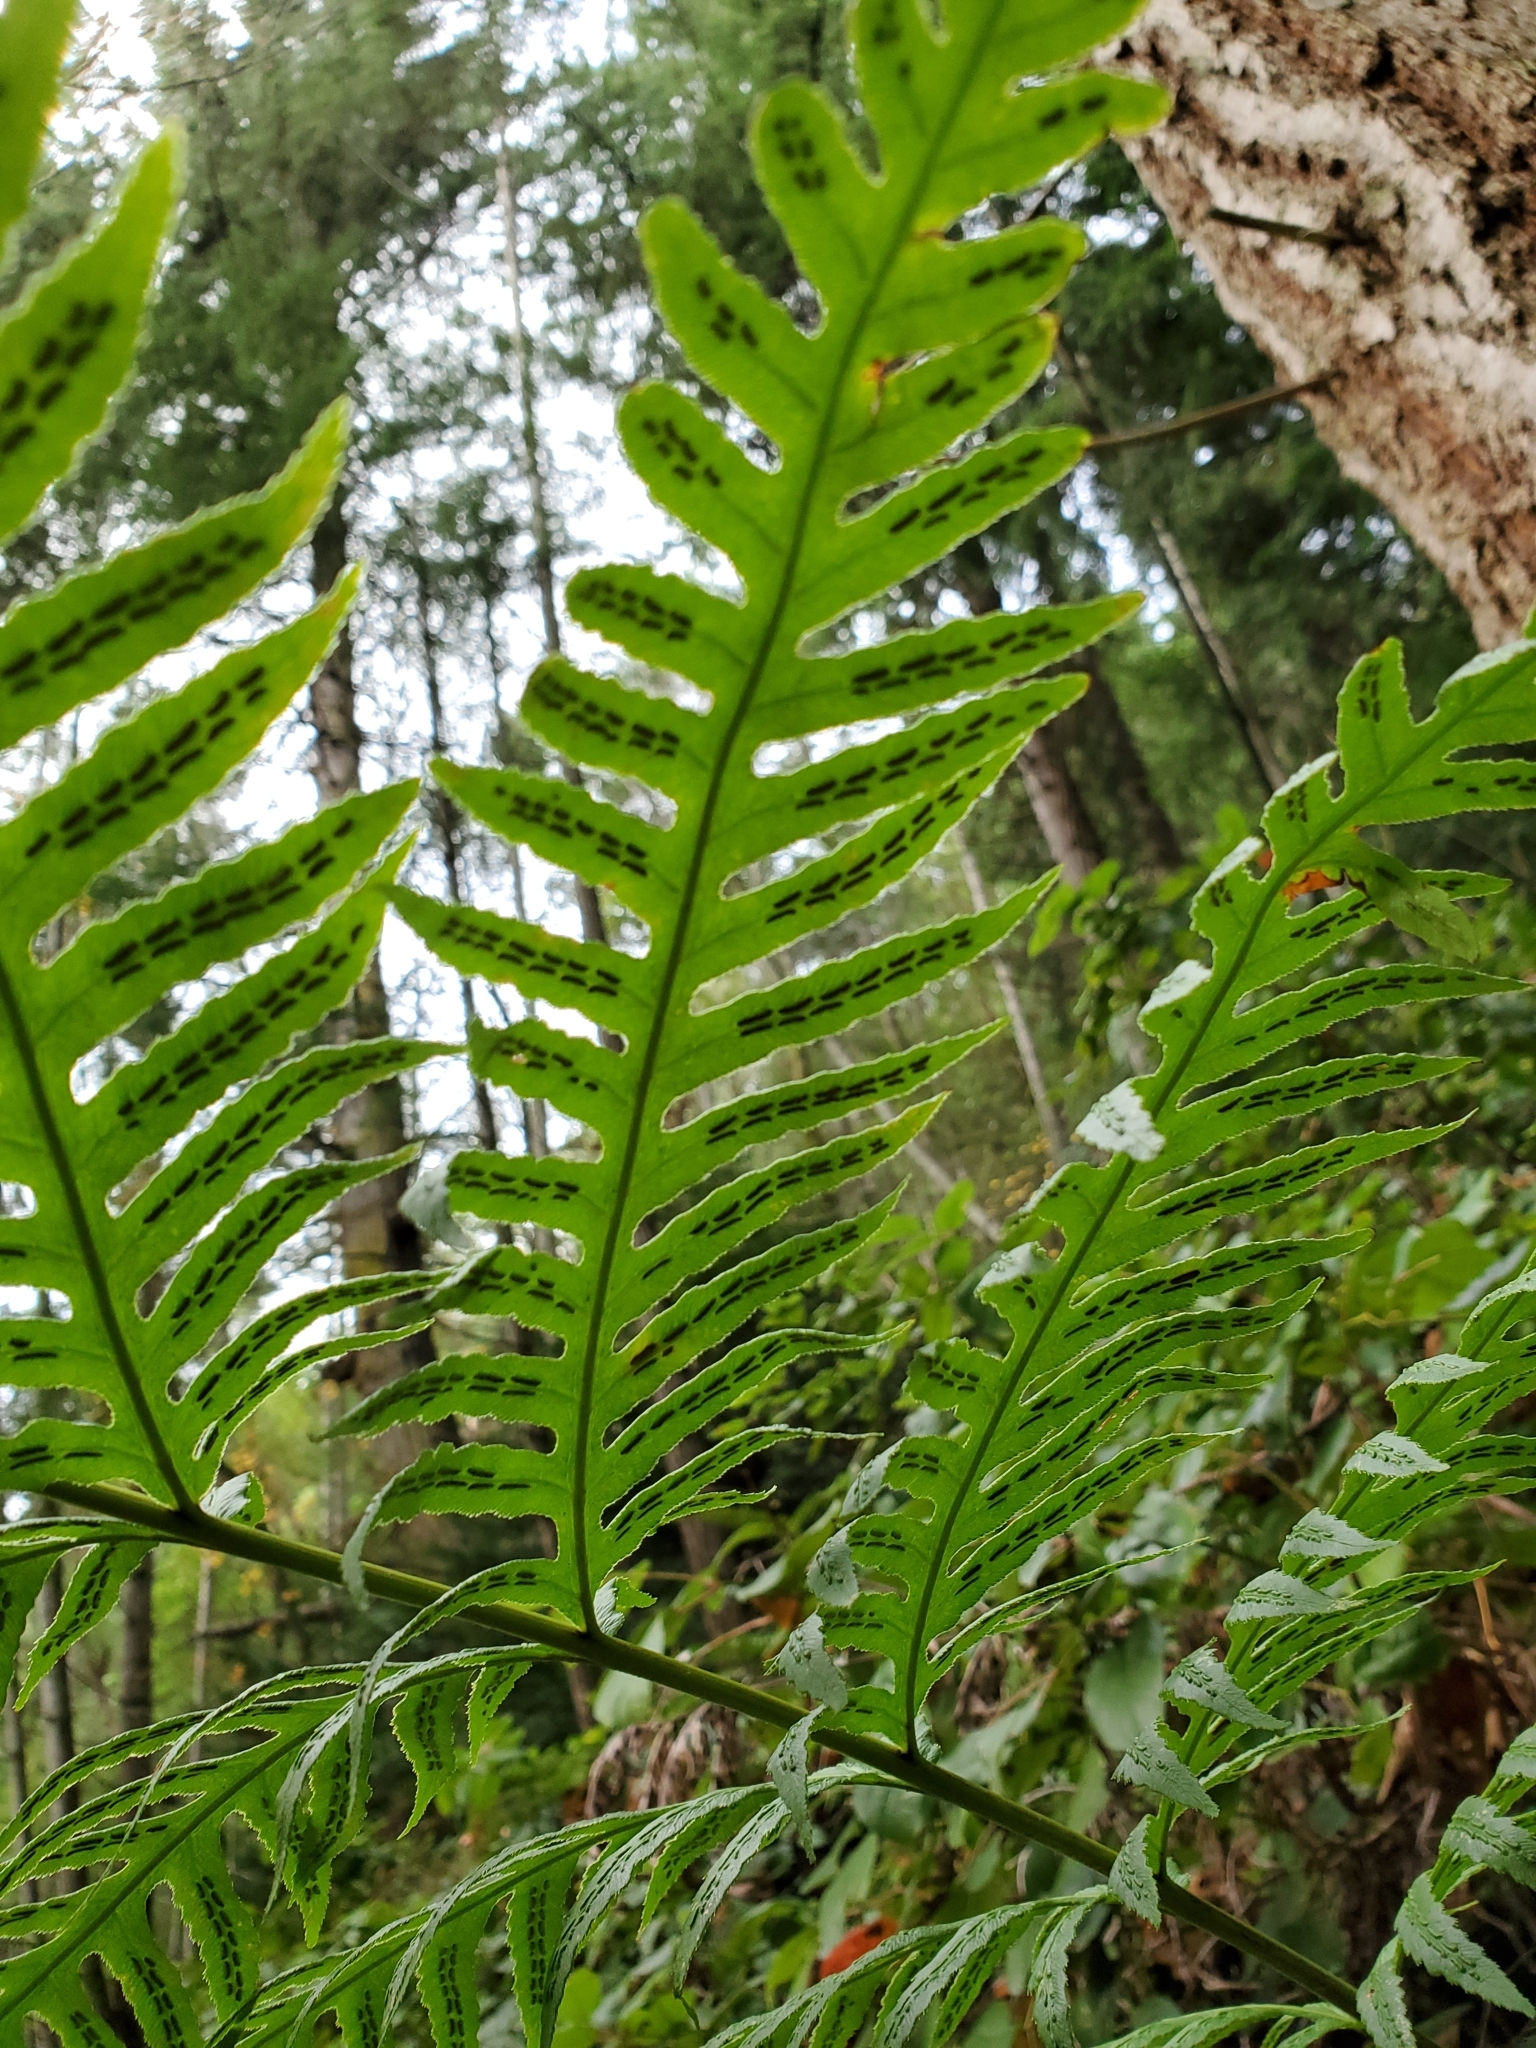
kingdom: Plantae
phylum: Tracheophyta
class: Polypodiopsida
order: Polypodiales
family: Blechnaceae
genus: Woodwardia
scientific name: Woodwardia fimbriata
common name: Giant chain fern
